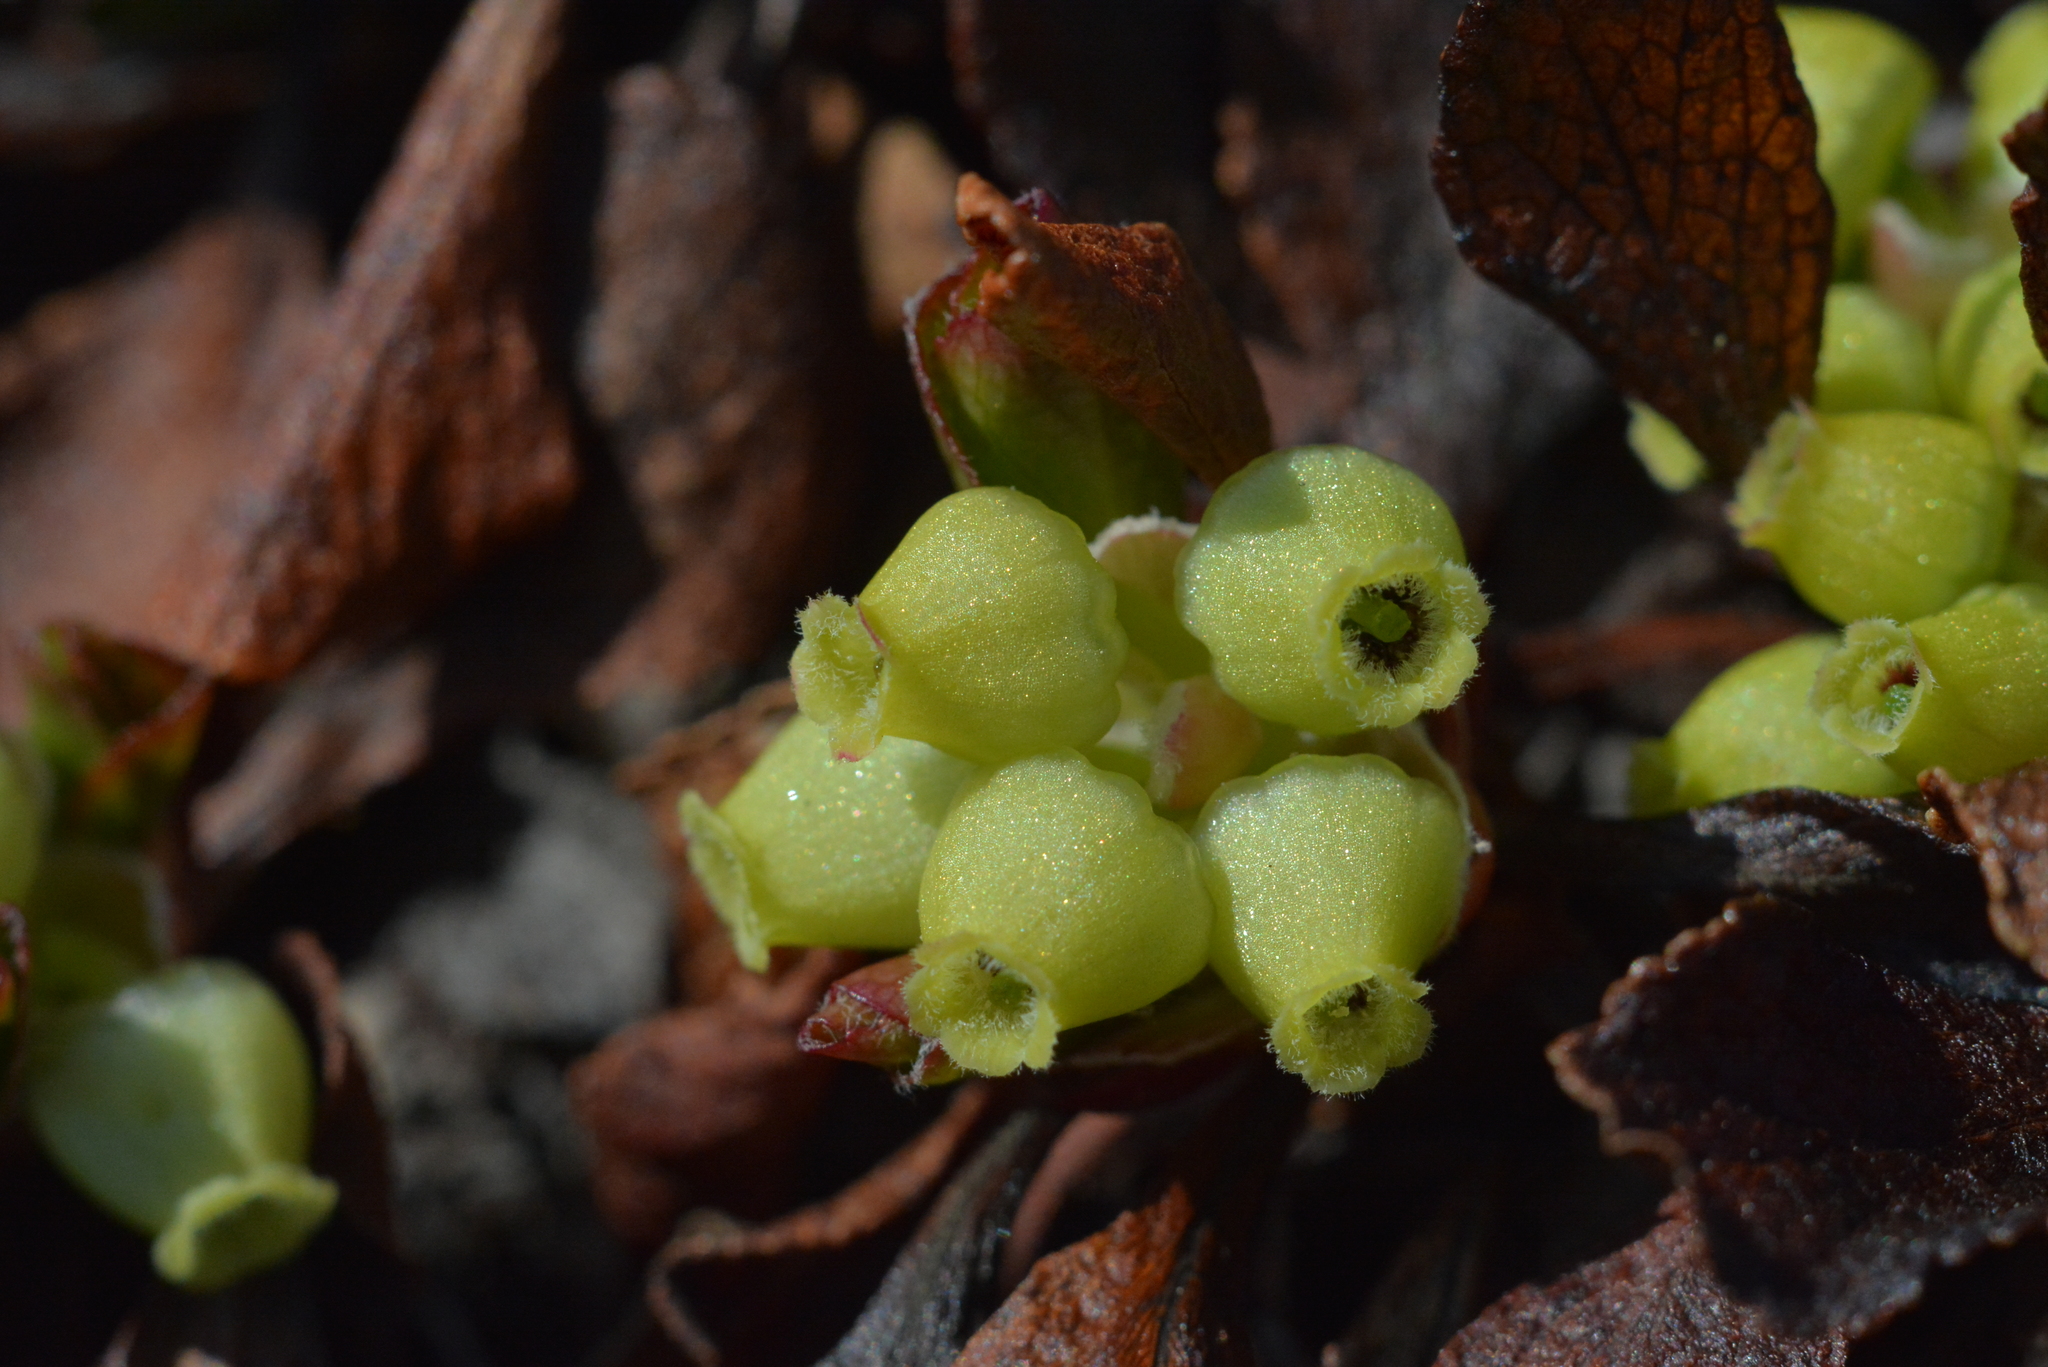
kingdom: Plantae
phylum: Tracheophyta
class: Magnoliopsida
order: Ericales
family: Ericaceae
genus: Arctostaphylos
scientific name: Arctostaphylos alpinus
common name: Alpine bearberry
